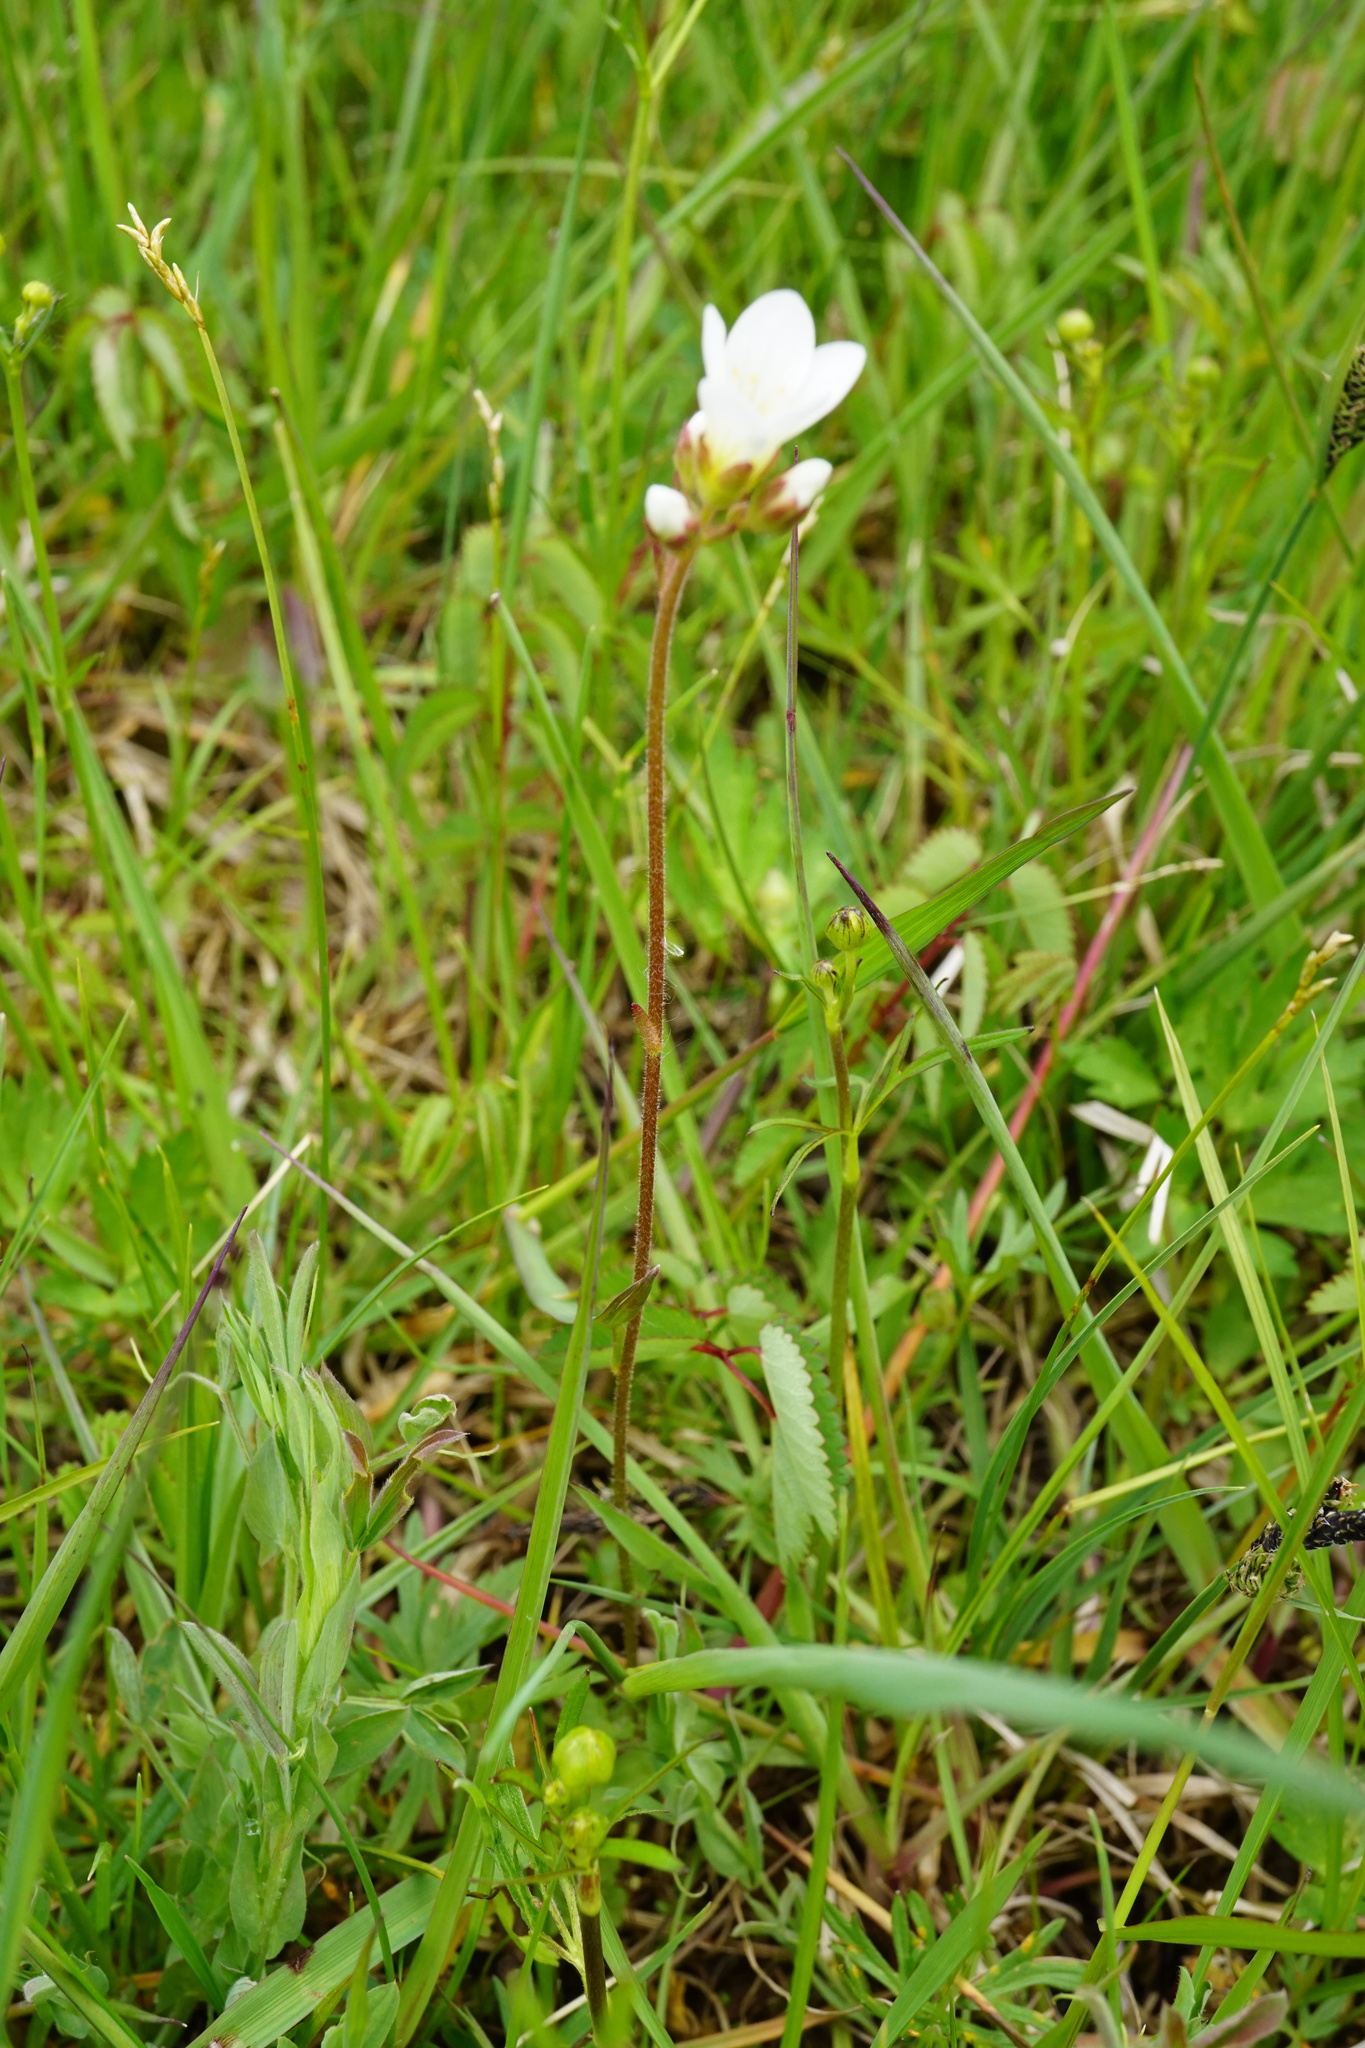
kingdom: Plantae
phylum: Tracheophyta
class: Magnoliopsida
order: Saxifragales
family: Saxifragaceae
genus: Saxifraga
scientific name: Saxifraga granulata
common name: Meadow saxifrage
